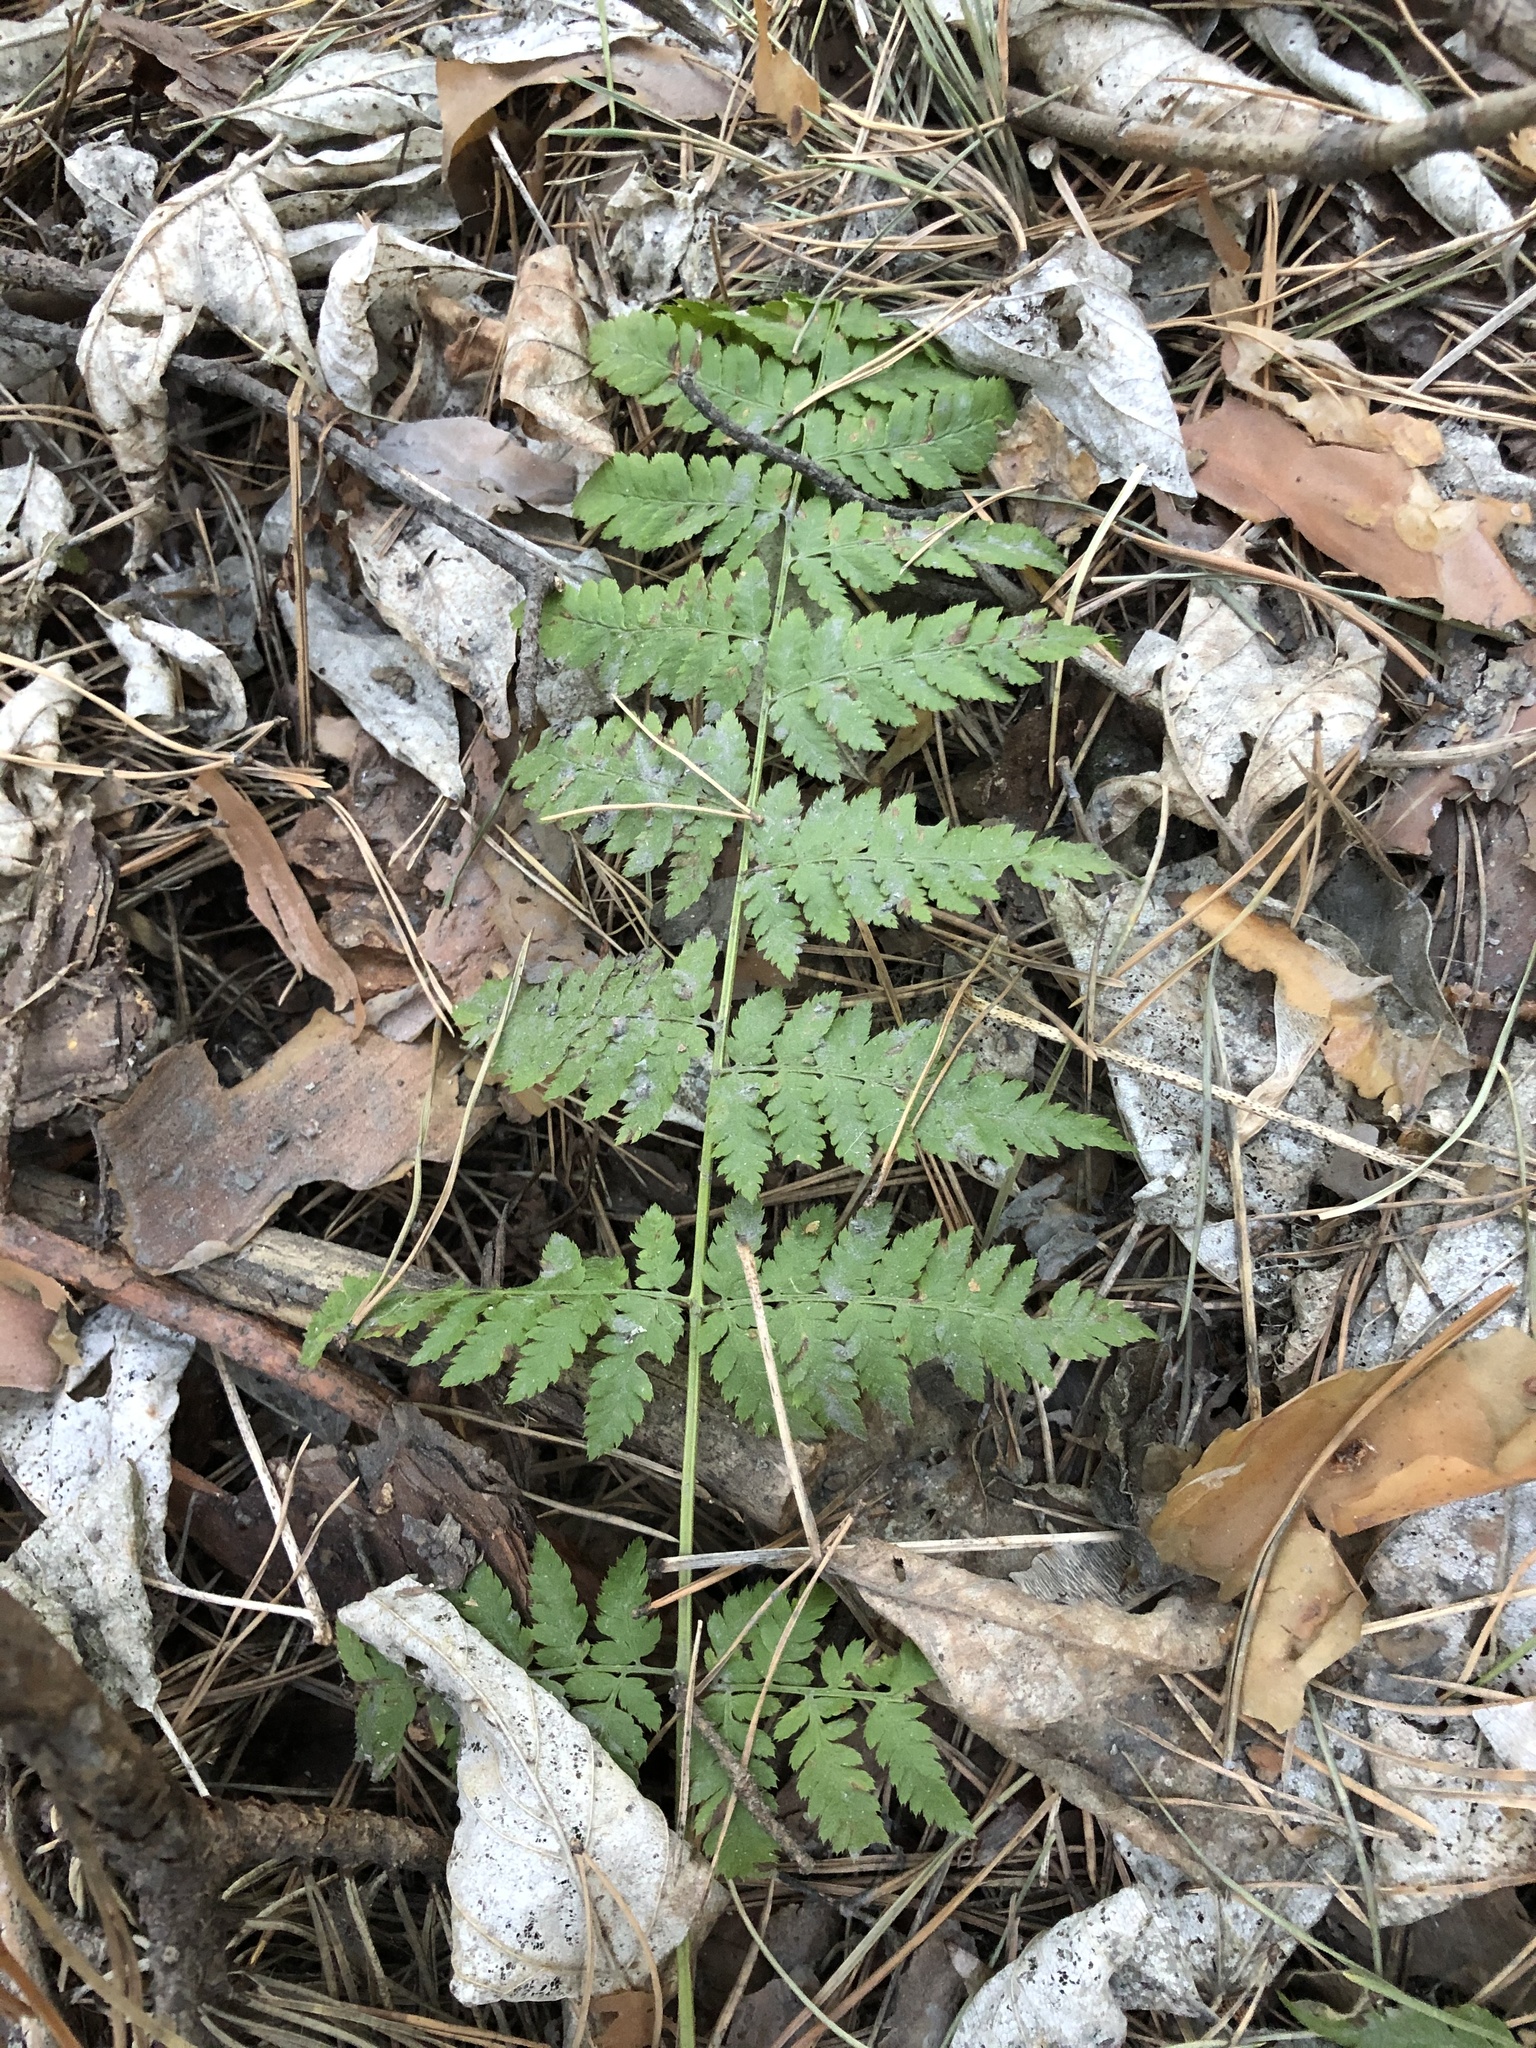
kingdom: Plantae
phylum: Tracheophyta
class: Polypodiopsida
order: Polypodiales
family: Dryopteridaceae
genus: Dryopteris
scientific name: Dryopteris carthusiana
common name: Narrow buckler-fern
